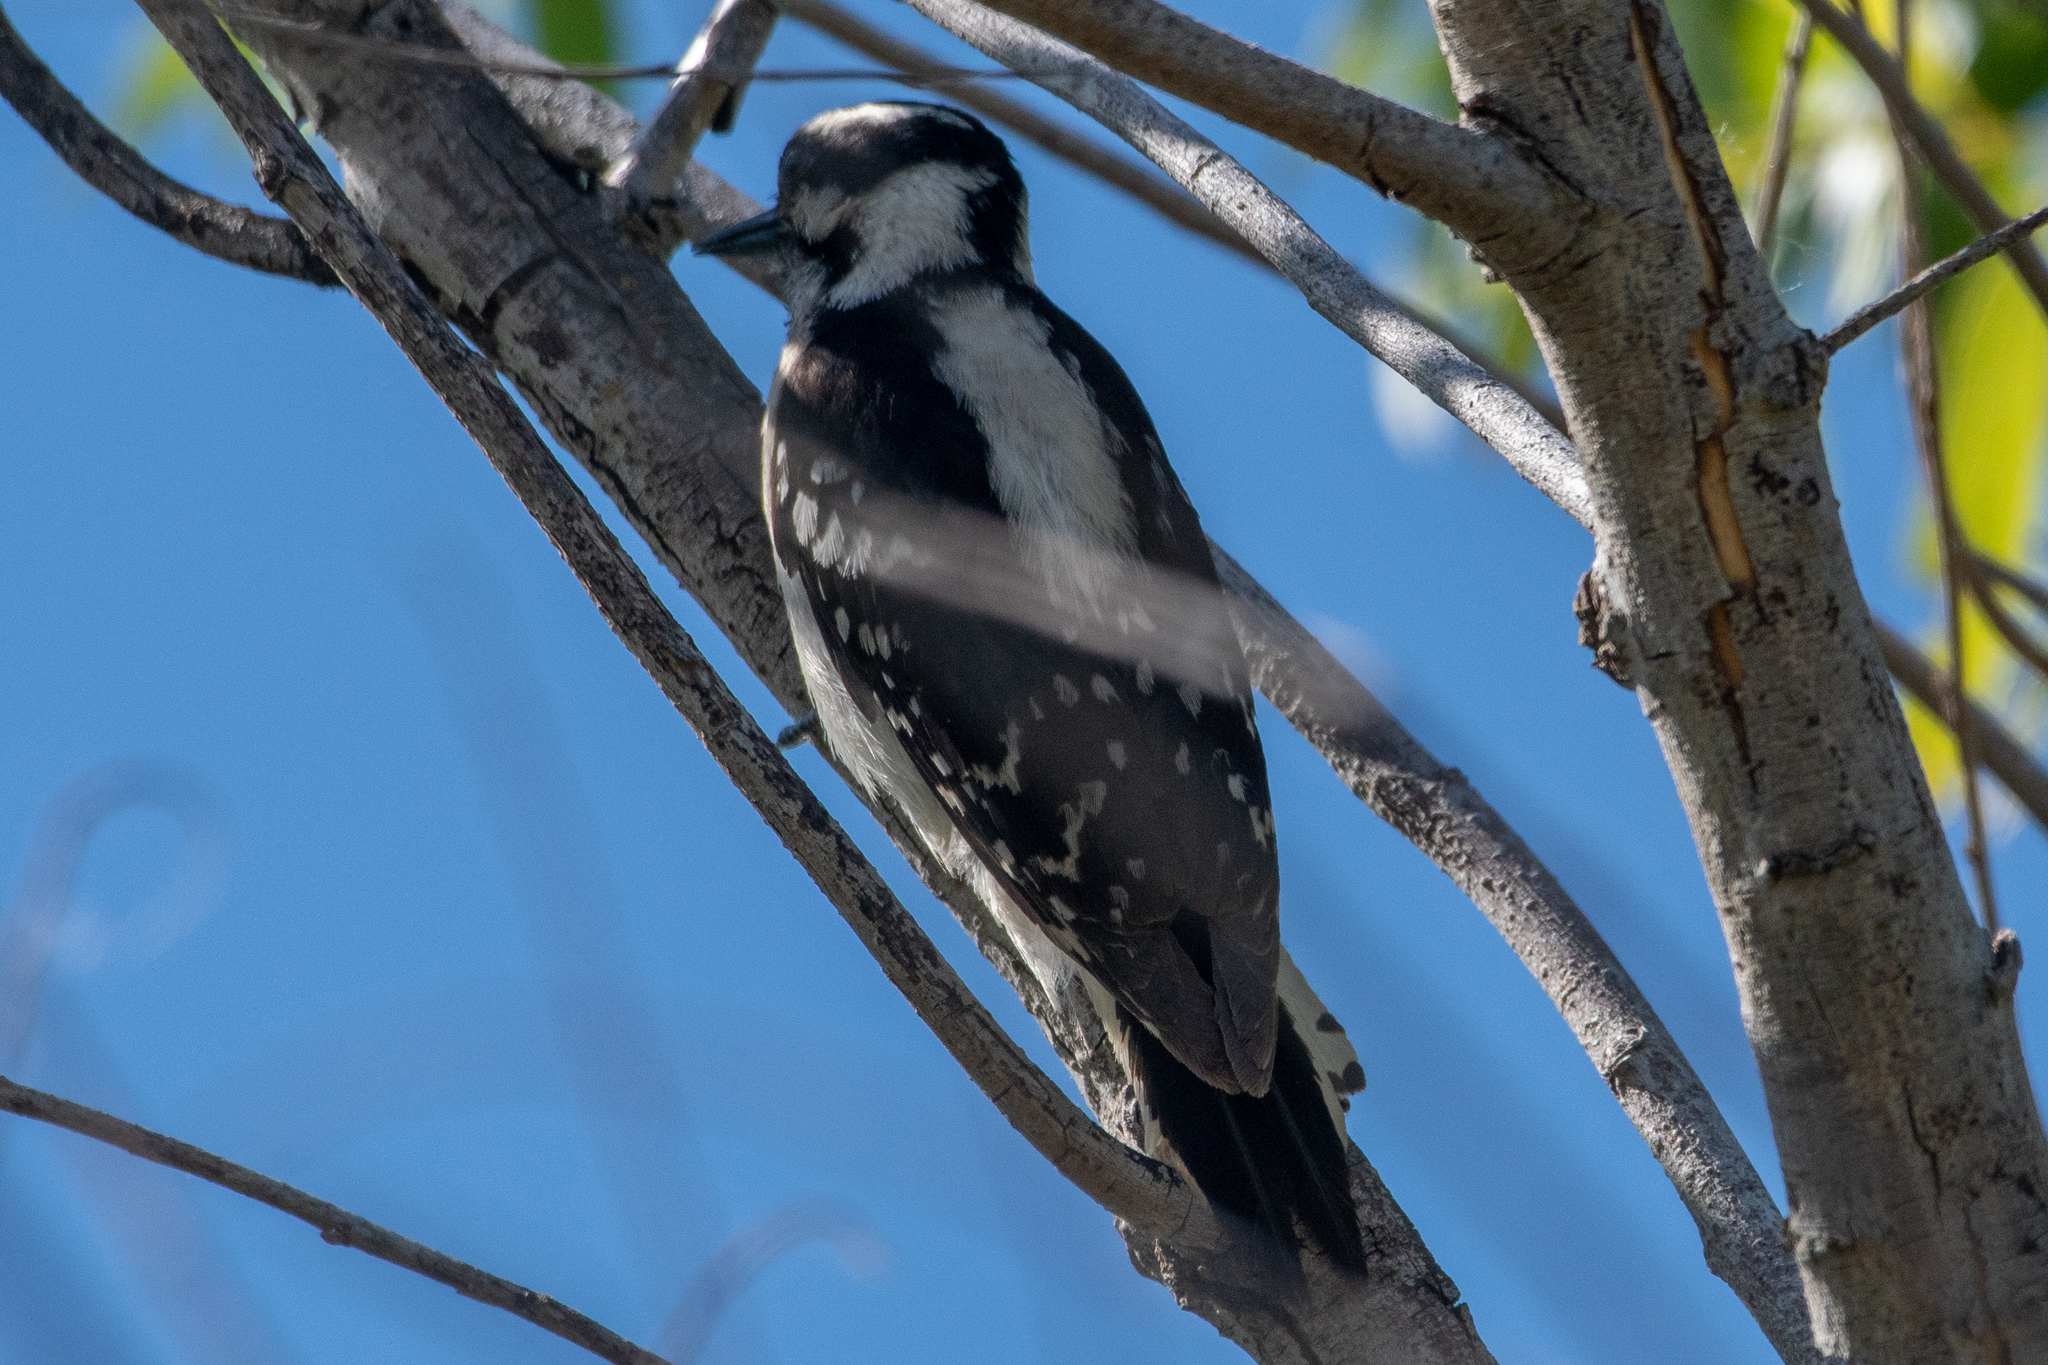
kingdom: Animalia
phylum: Chordata
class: Aves
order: Piciformes
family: Picidae
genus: Dryobates
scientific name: Dryobates pubescens
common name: Downy woodpecker
